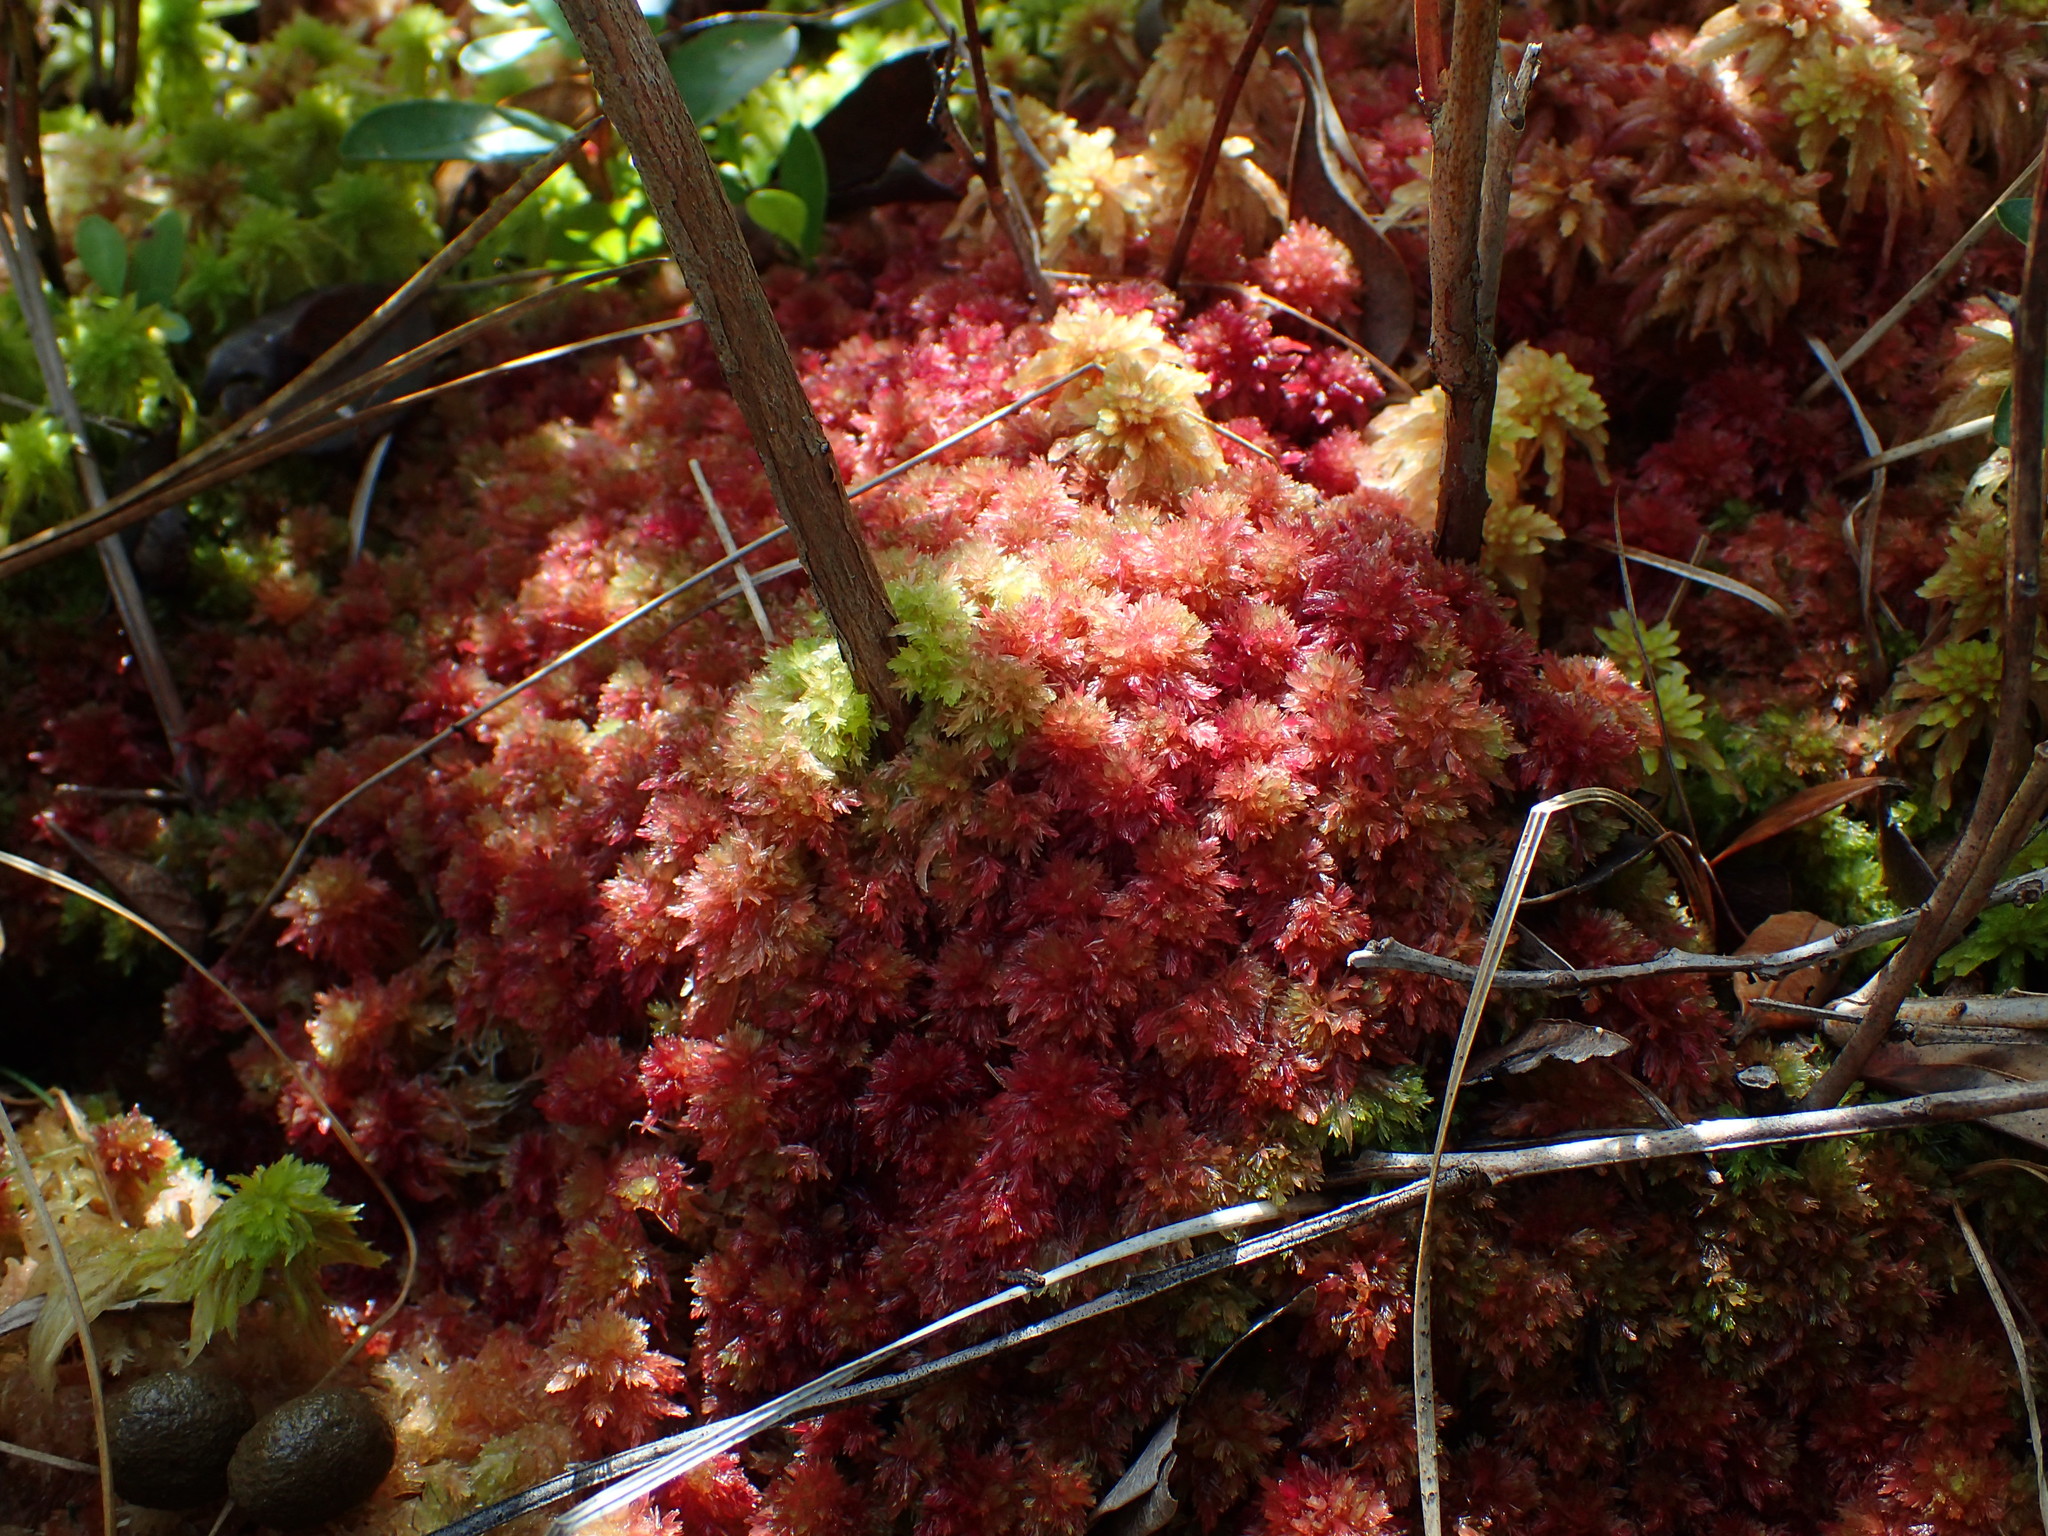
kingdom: Plantae
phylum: Bryophyta
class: Sphagnopsida
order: Sphagnales
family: Sphagnaceae
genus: Sphagnum
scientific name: Sphagnum molle
